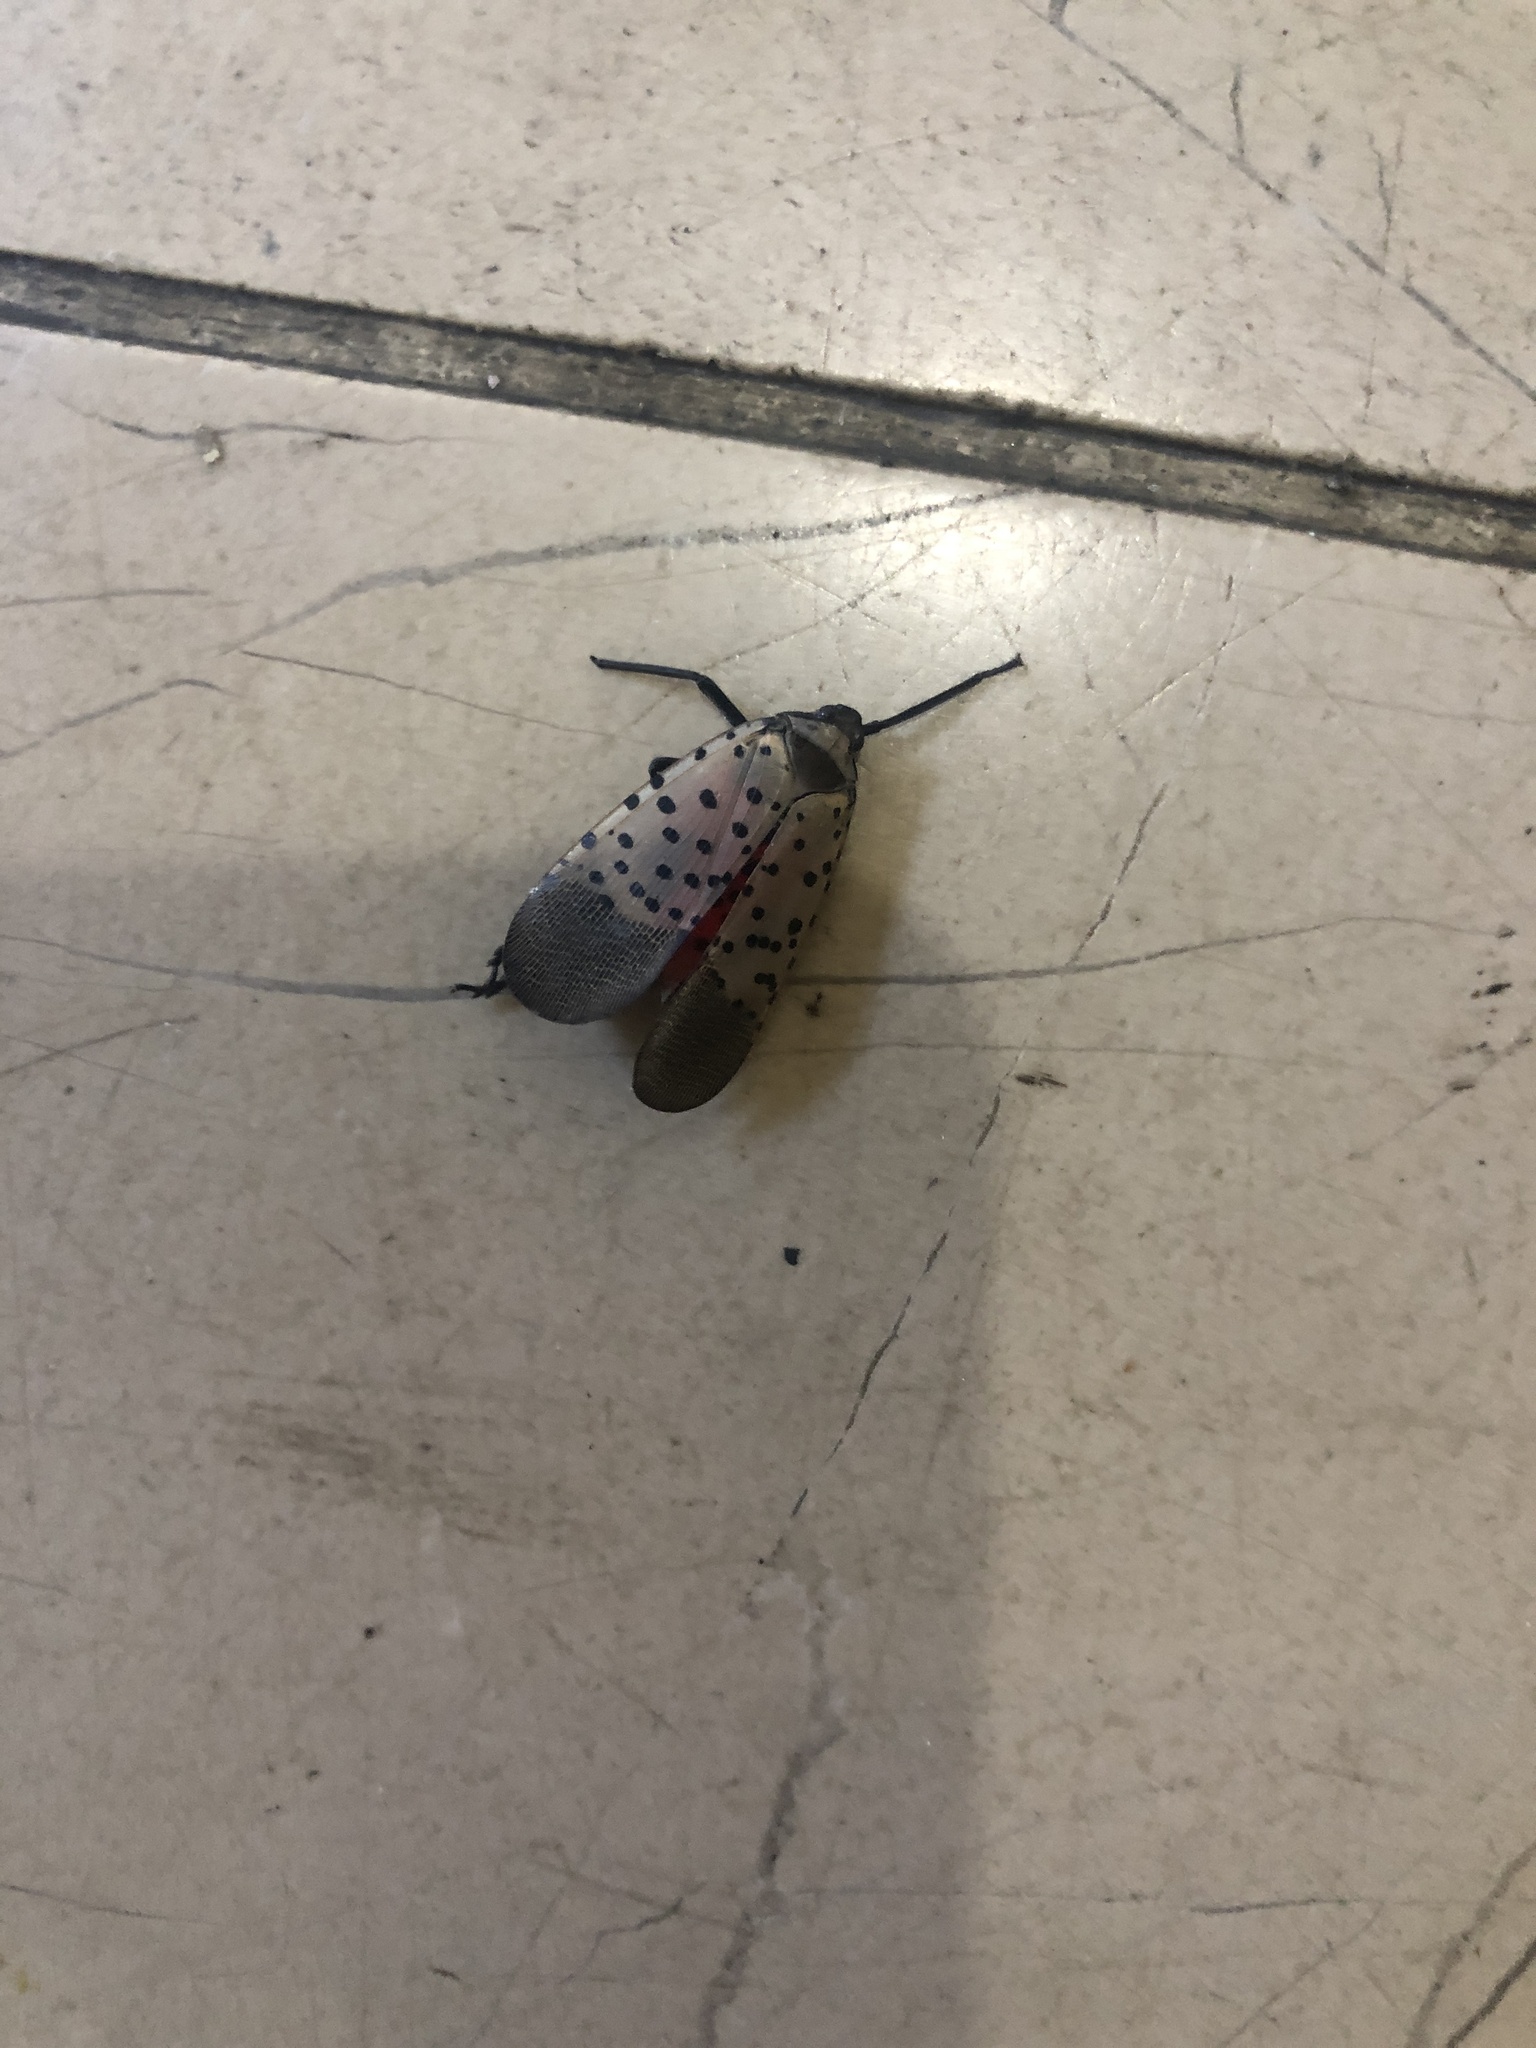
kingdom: Animalia
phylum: Arthropoda
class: Insecta
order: Hemiptera
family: Fulgoridae
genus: Lycorma
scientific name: Lycorma delicatula
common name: Spotted lanternfly
